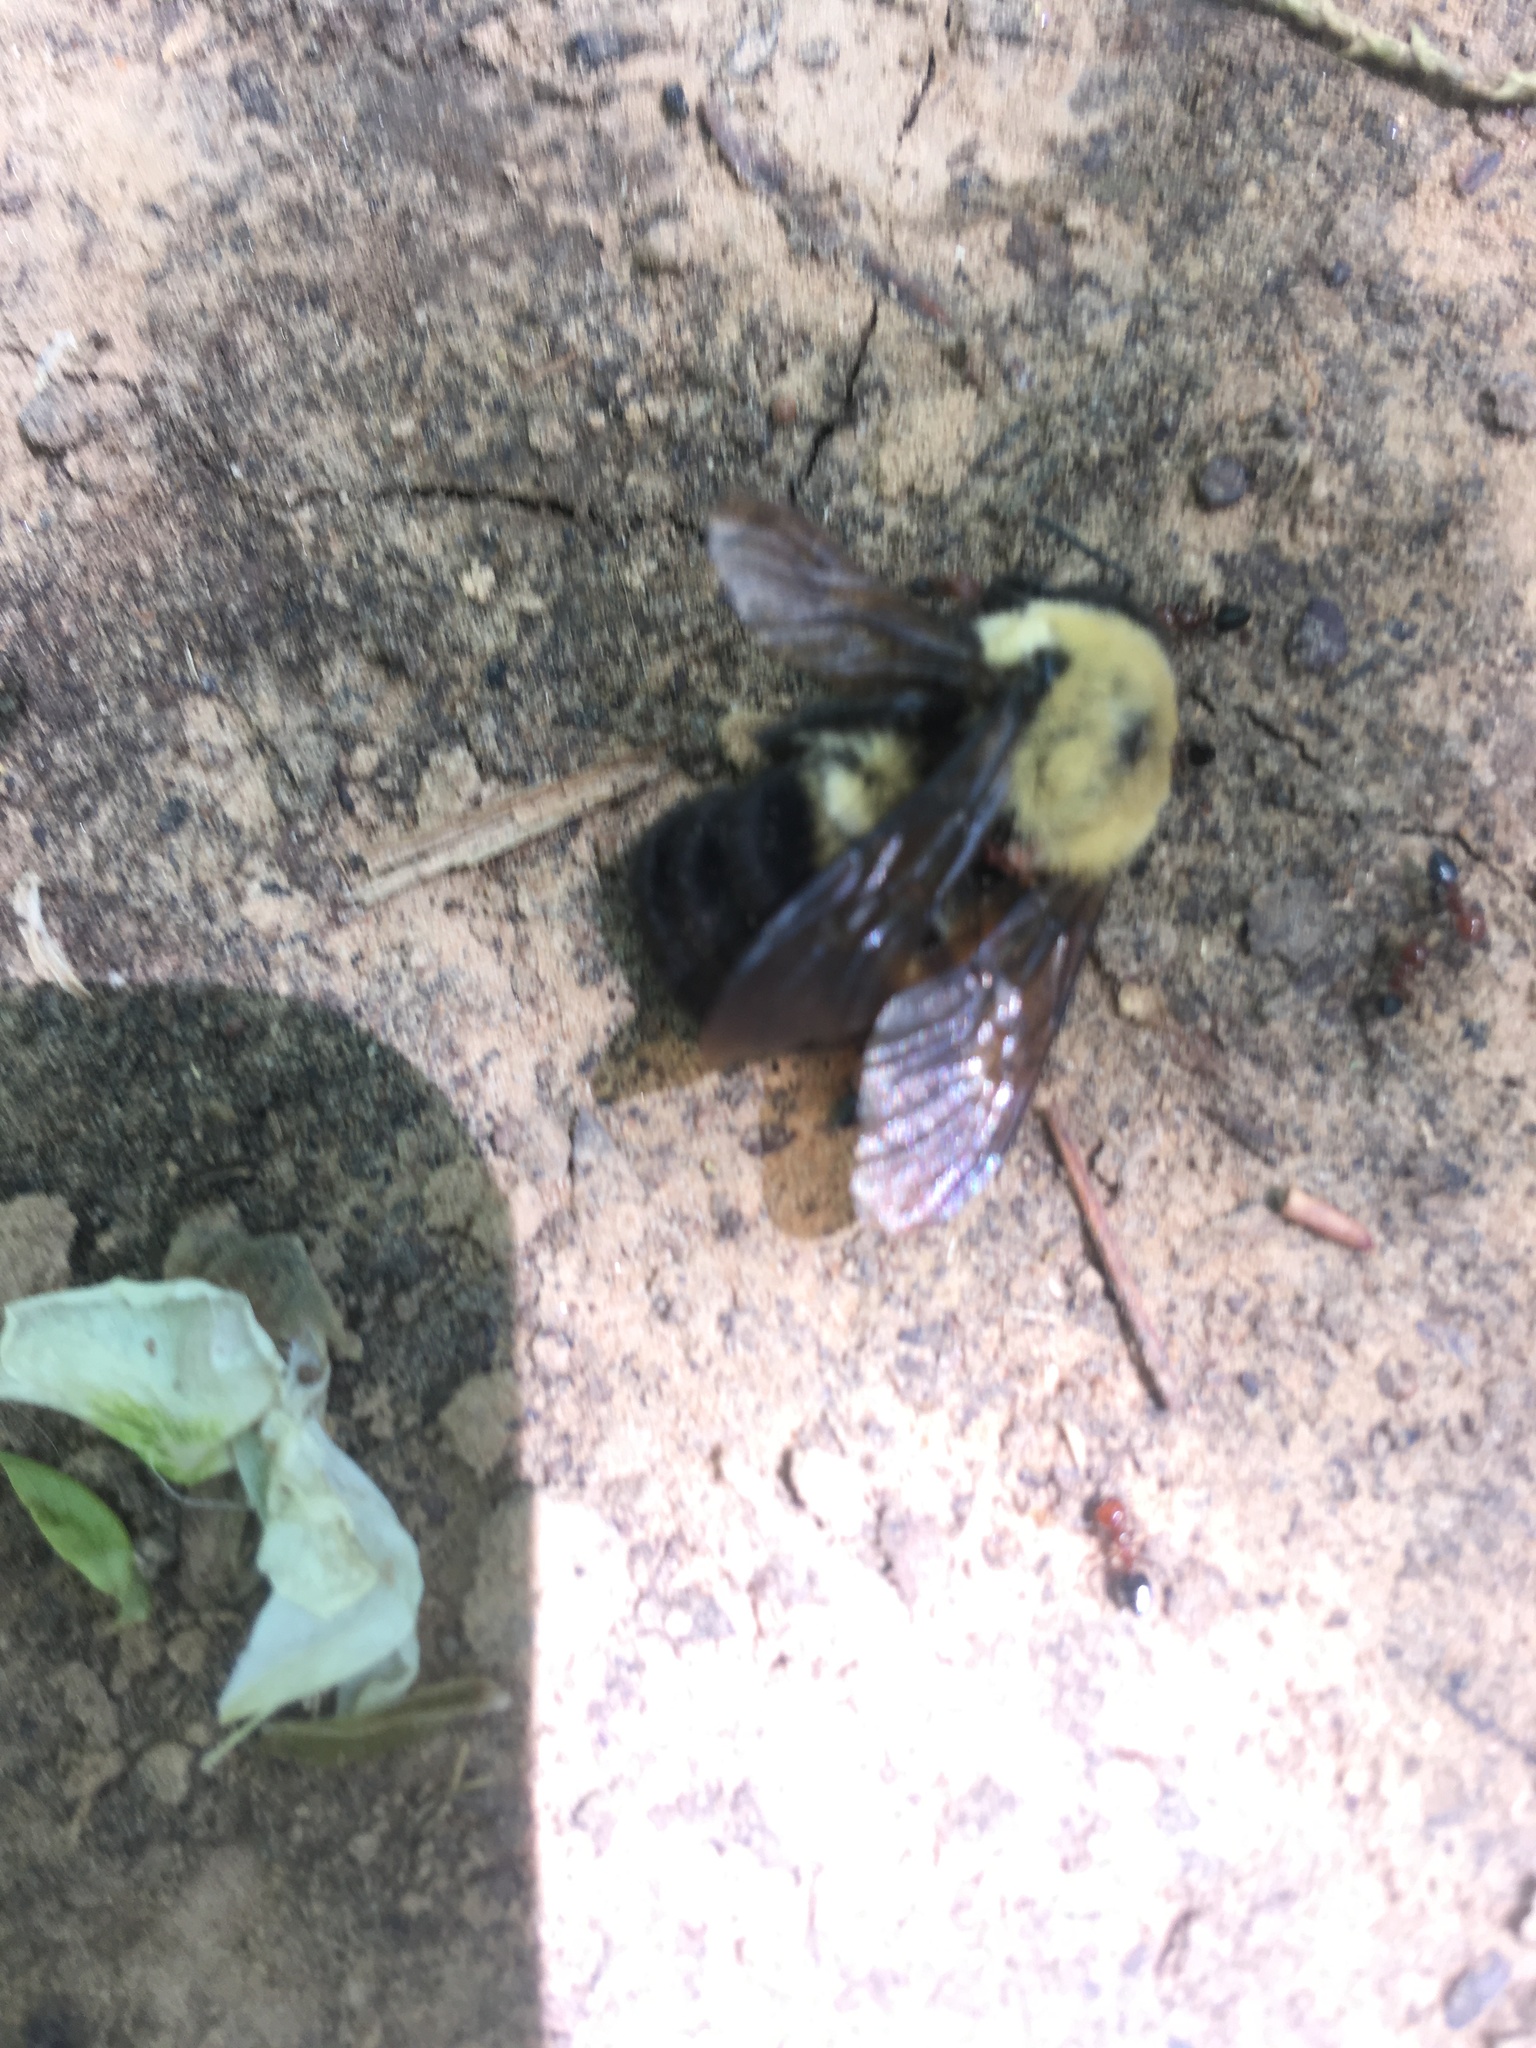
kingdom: Animalia
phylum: Arthropoda
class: Insecta
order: Hymenoptera
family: Apidae
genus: Bombus
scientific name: Bombus griseocollis
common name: Brown-belted bumble bee
